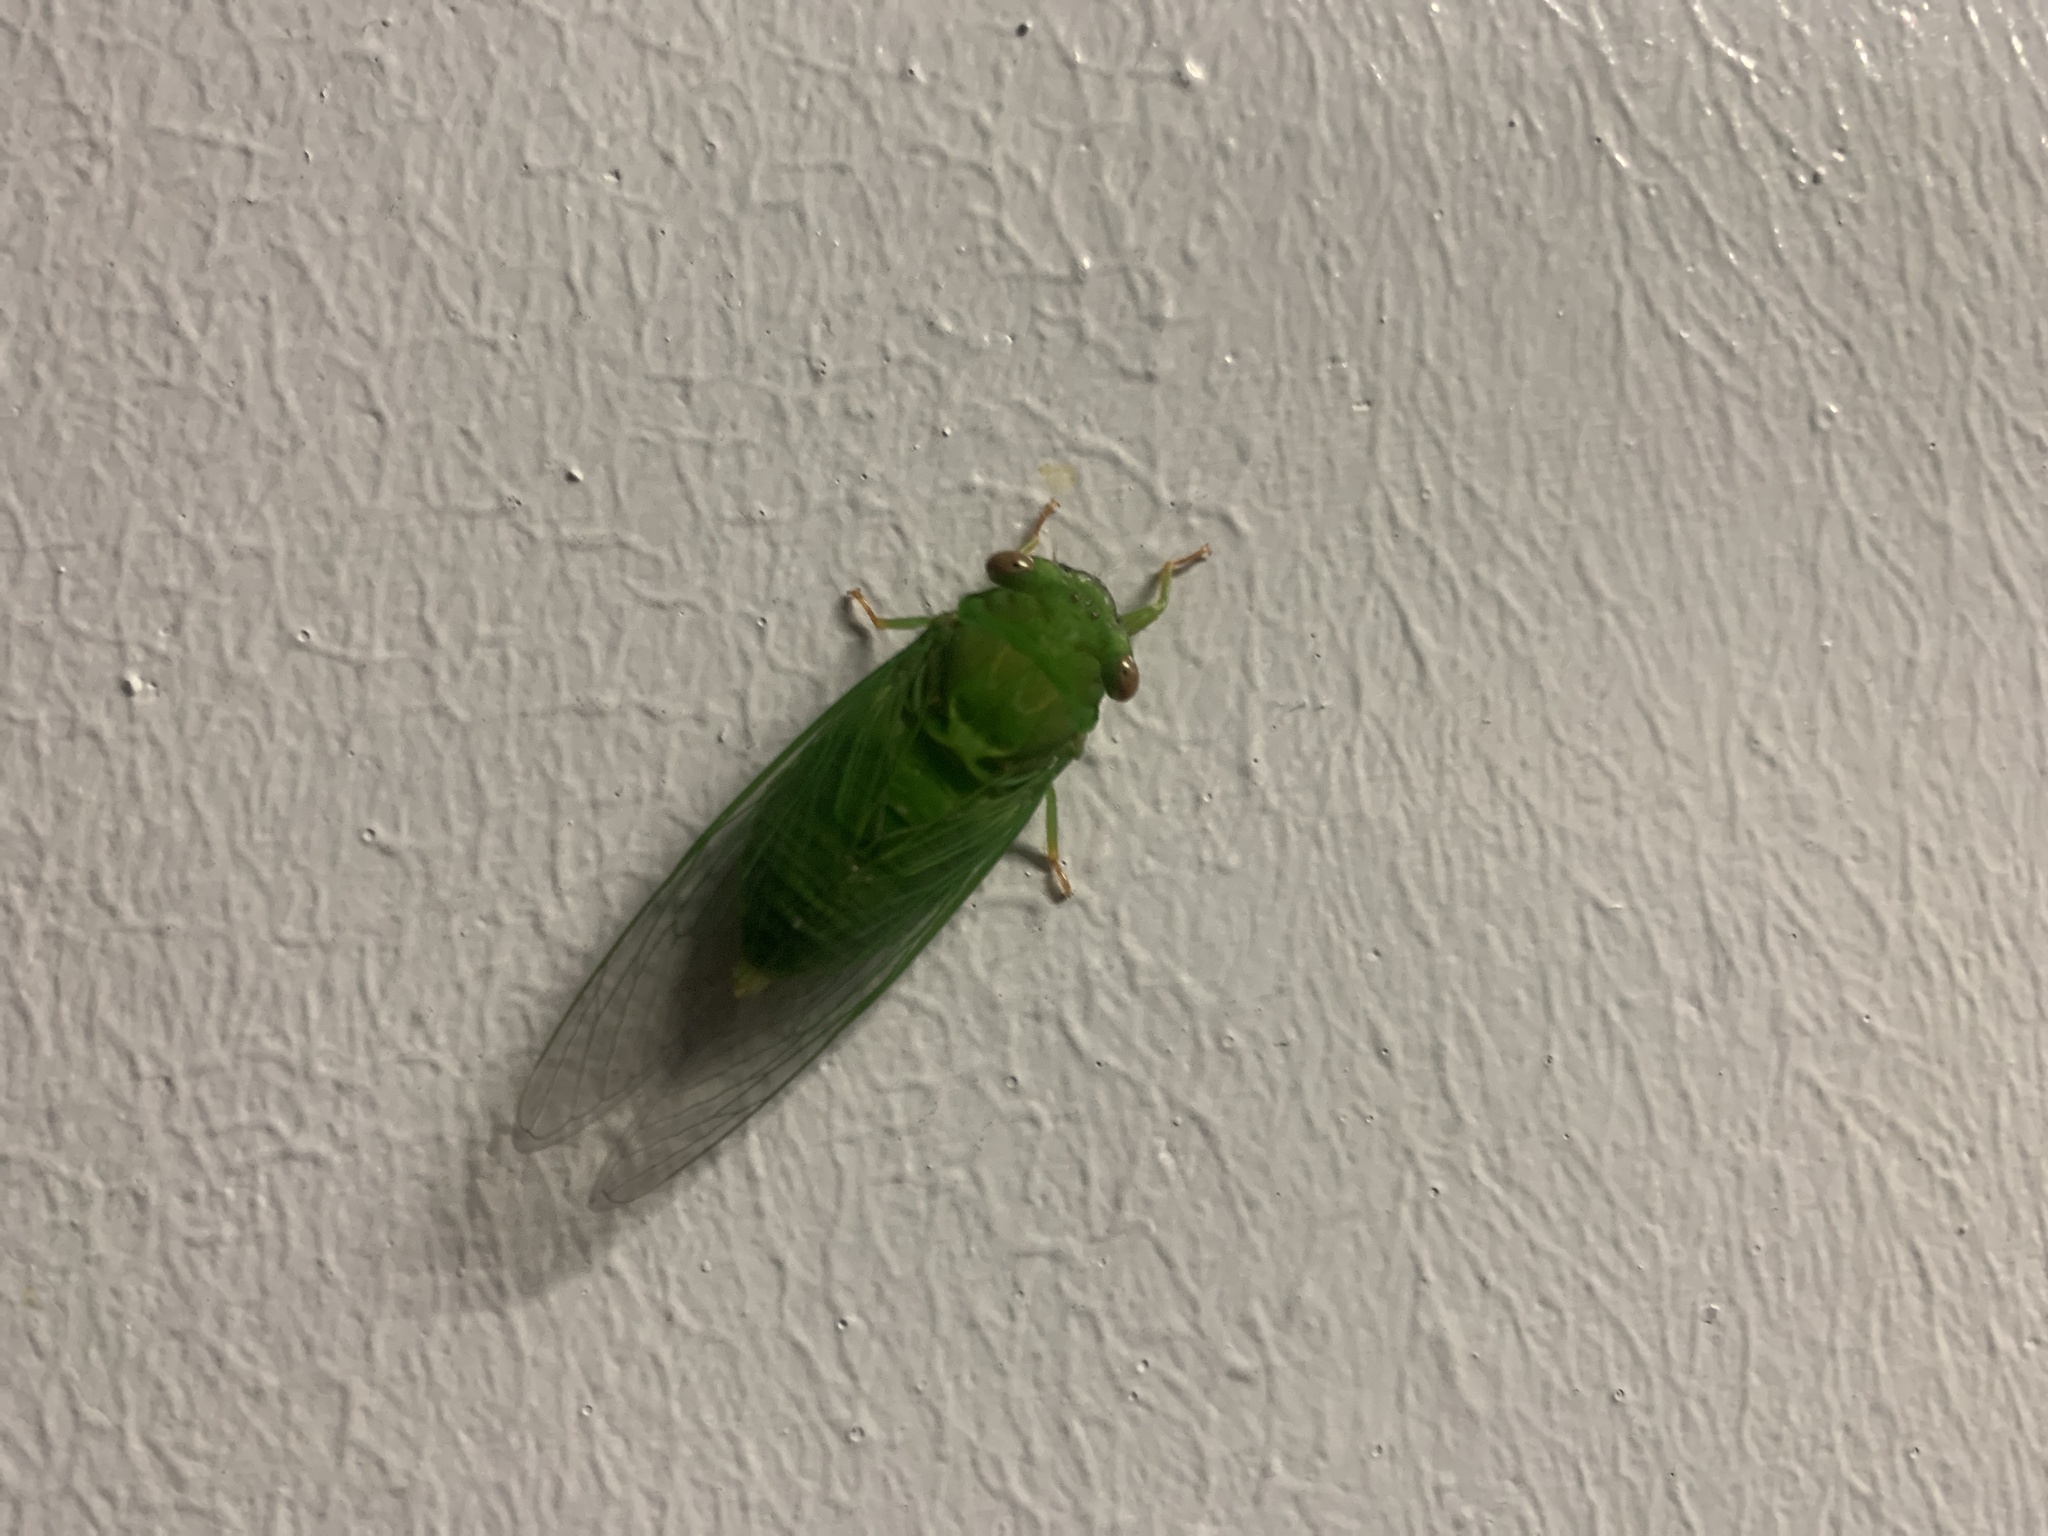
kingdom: Animalia
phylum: Arthropoda
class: Insecta
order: Hemiptera
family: Cicadidae
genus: Chremistica
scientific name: Chremistica ochracea
